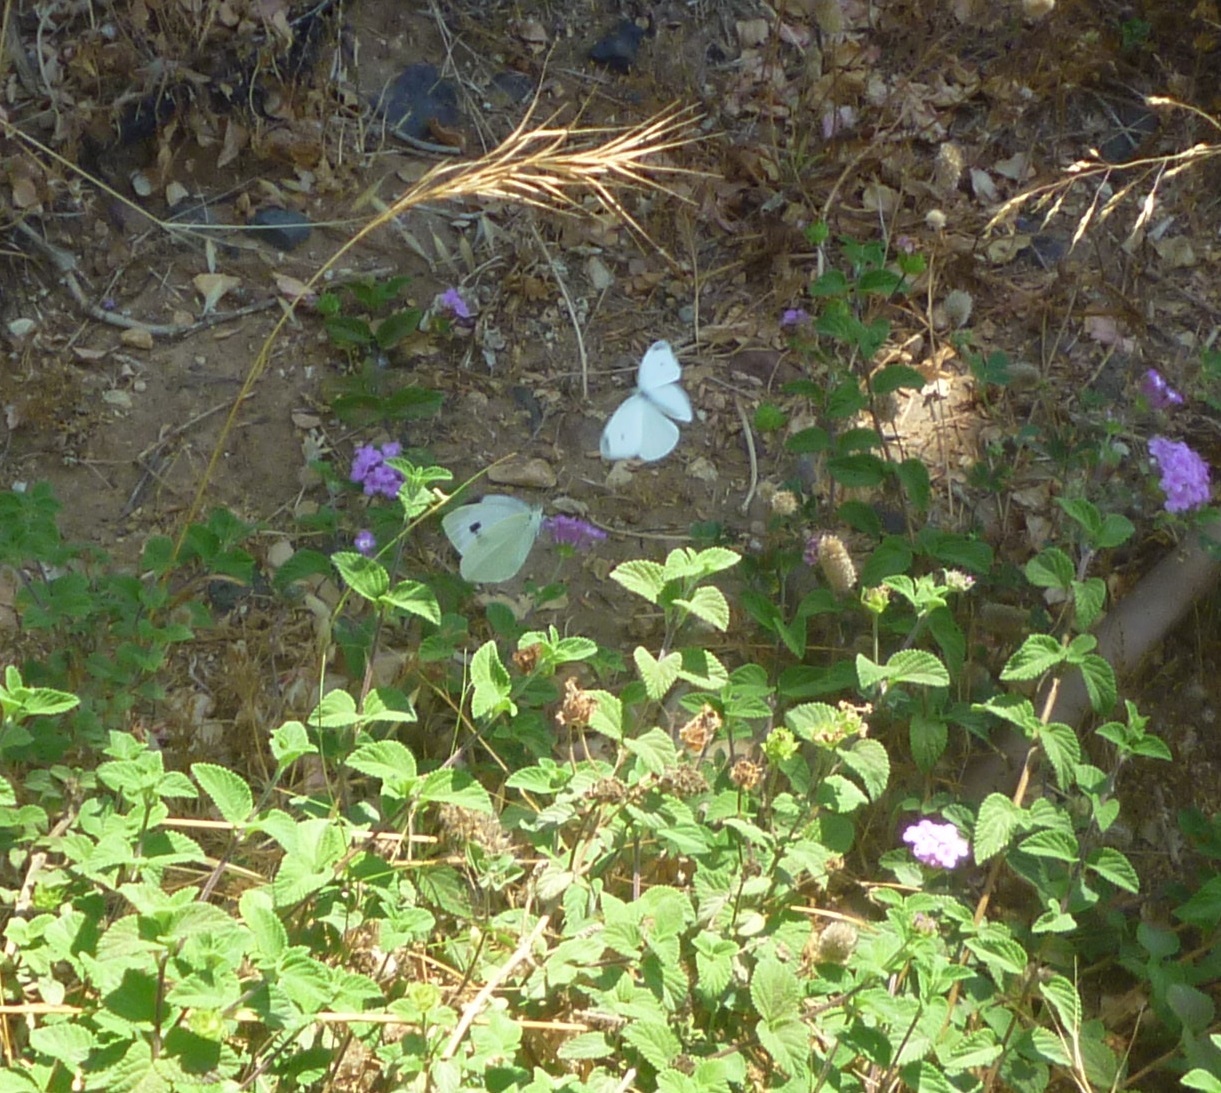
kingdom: Animalia
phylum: Arthropoda
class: Insecta
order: Lepidoptera
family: Pieridae
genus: Pieris
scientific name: Pieris rapae
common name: Small white
